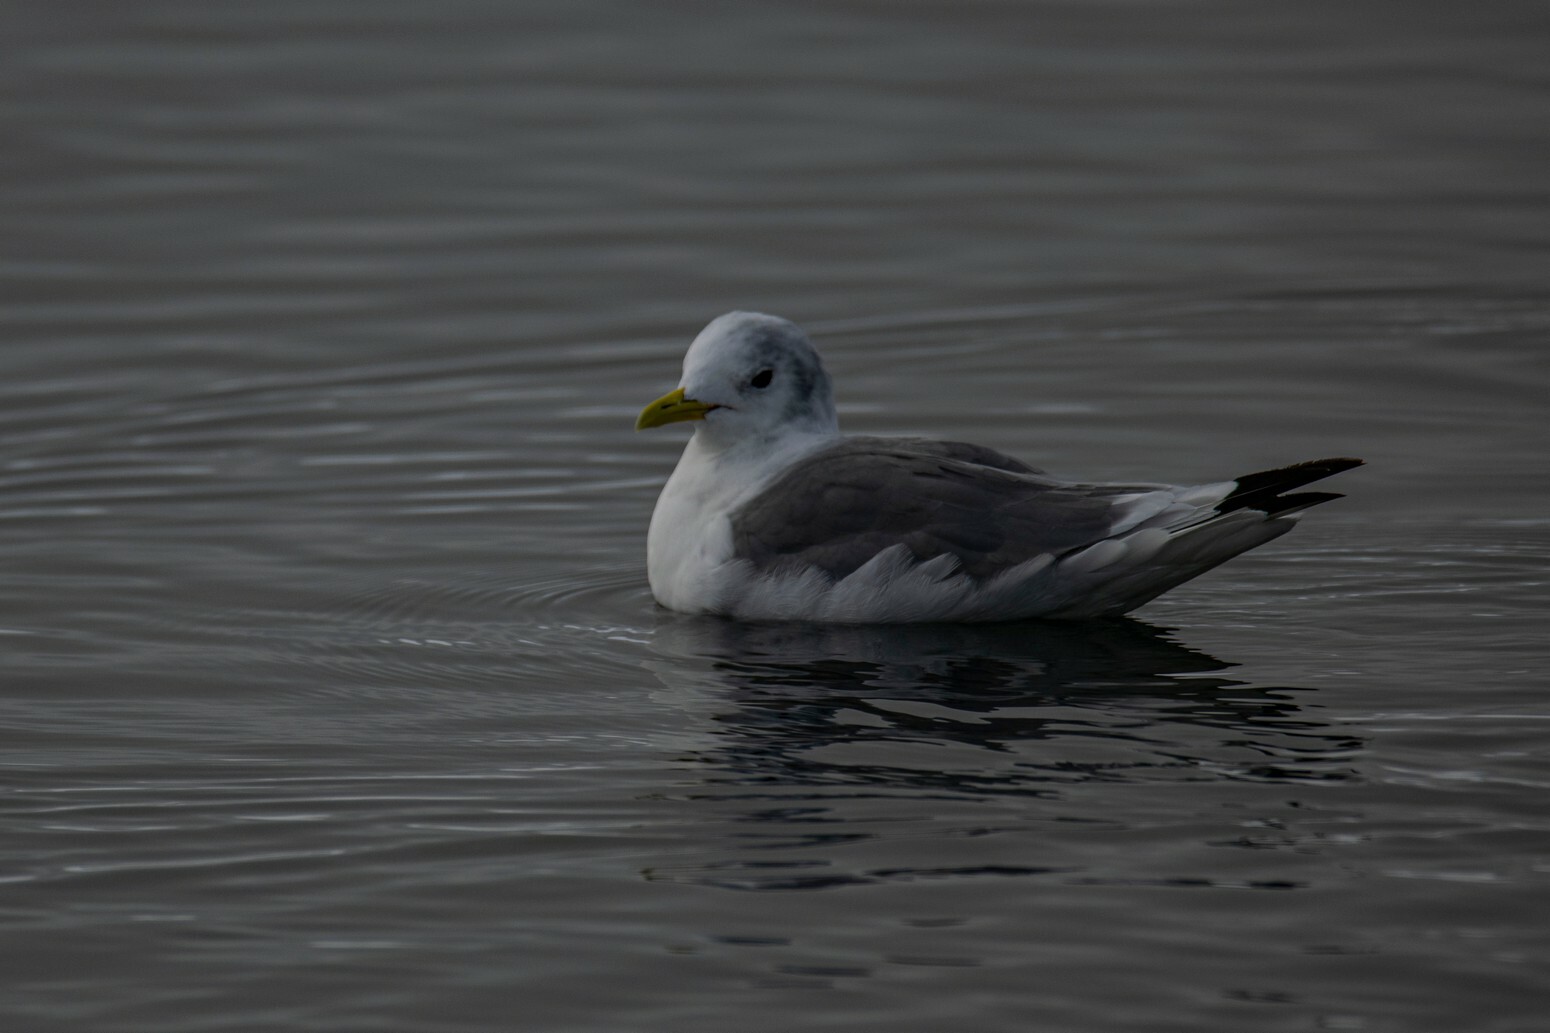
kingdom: Animalia
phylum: Chordata
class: Aves
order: Charadriiformes
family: Laridae
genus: Rissa
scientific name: Rissa tridactyla
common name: Black-legged kittiwake
